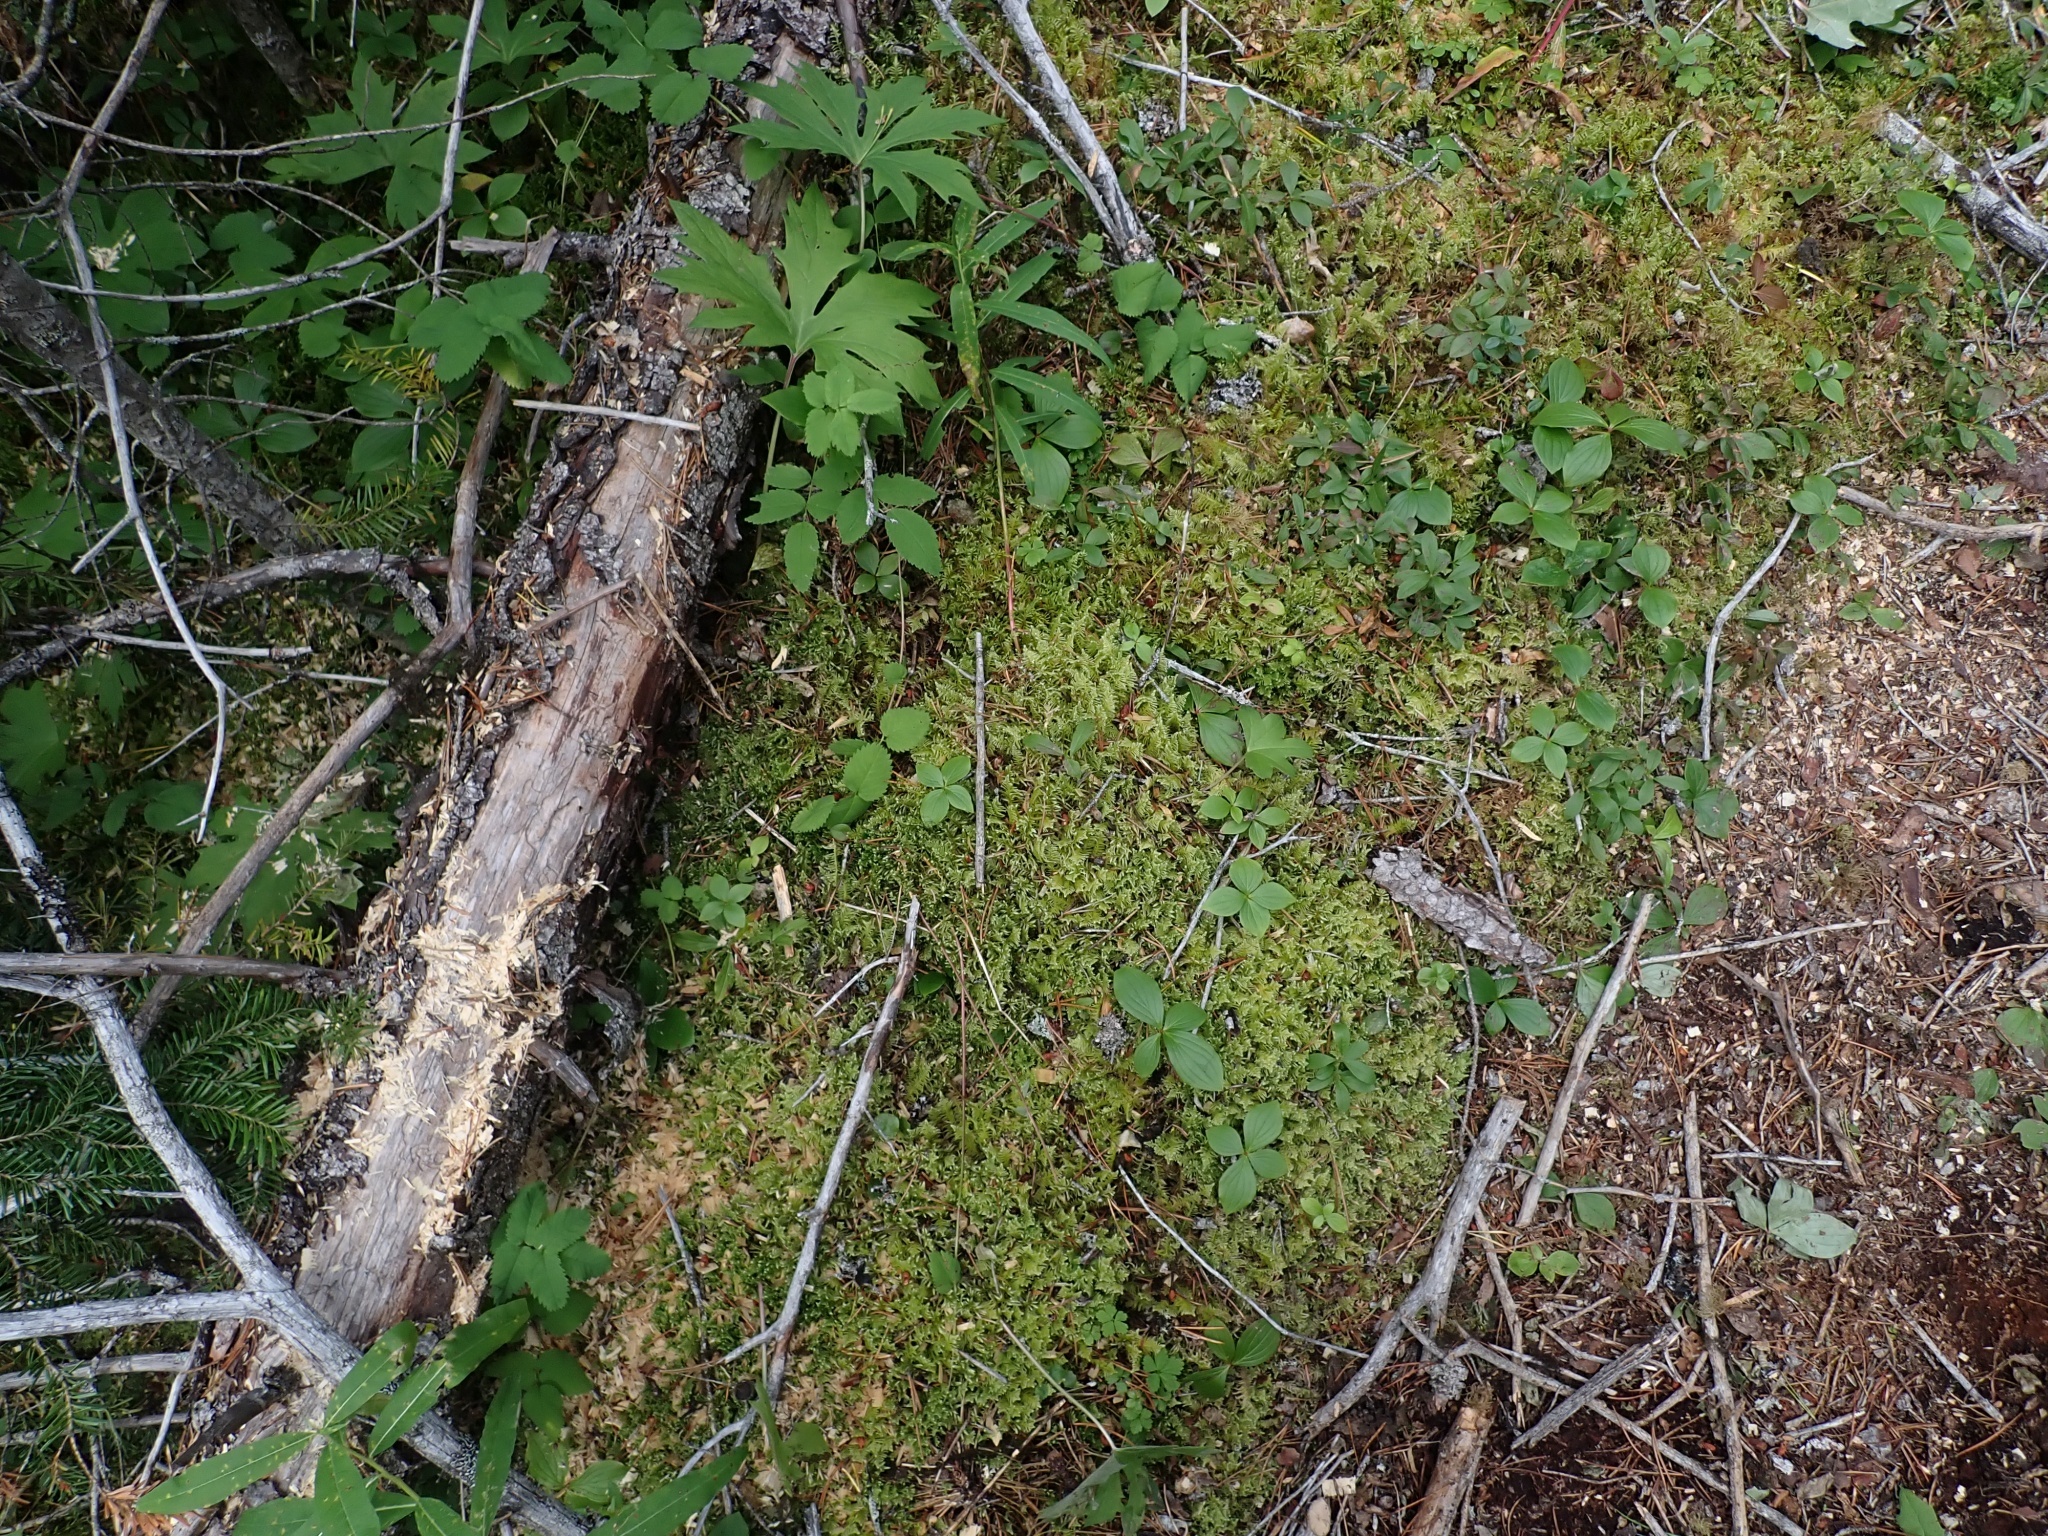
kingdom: Plantae
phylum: Bryophyta
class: Bryopsida
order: Hypnales
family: Pylaisiaceae
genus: Ptilium
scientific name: Ptilium crista-castrensis
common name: Knight's plume moss
